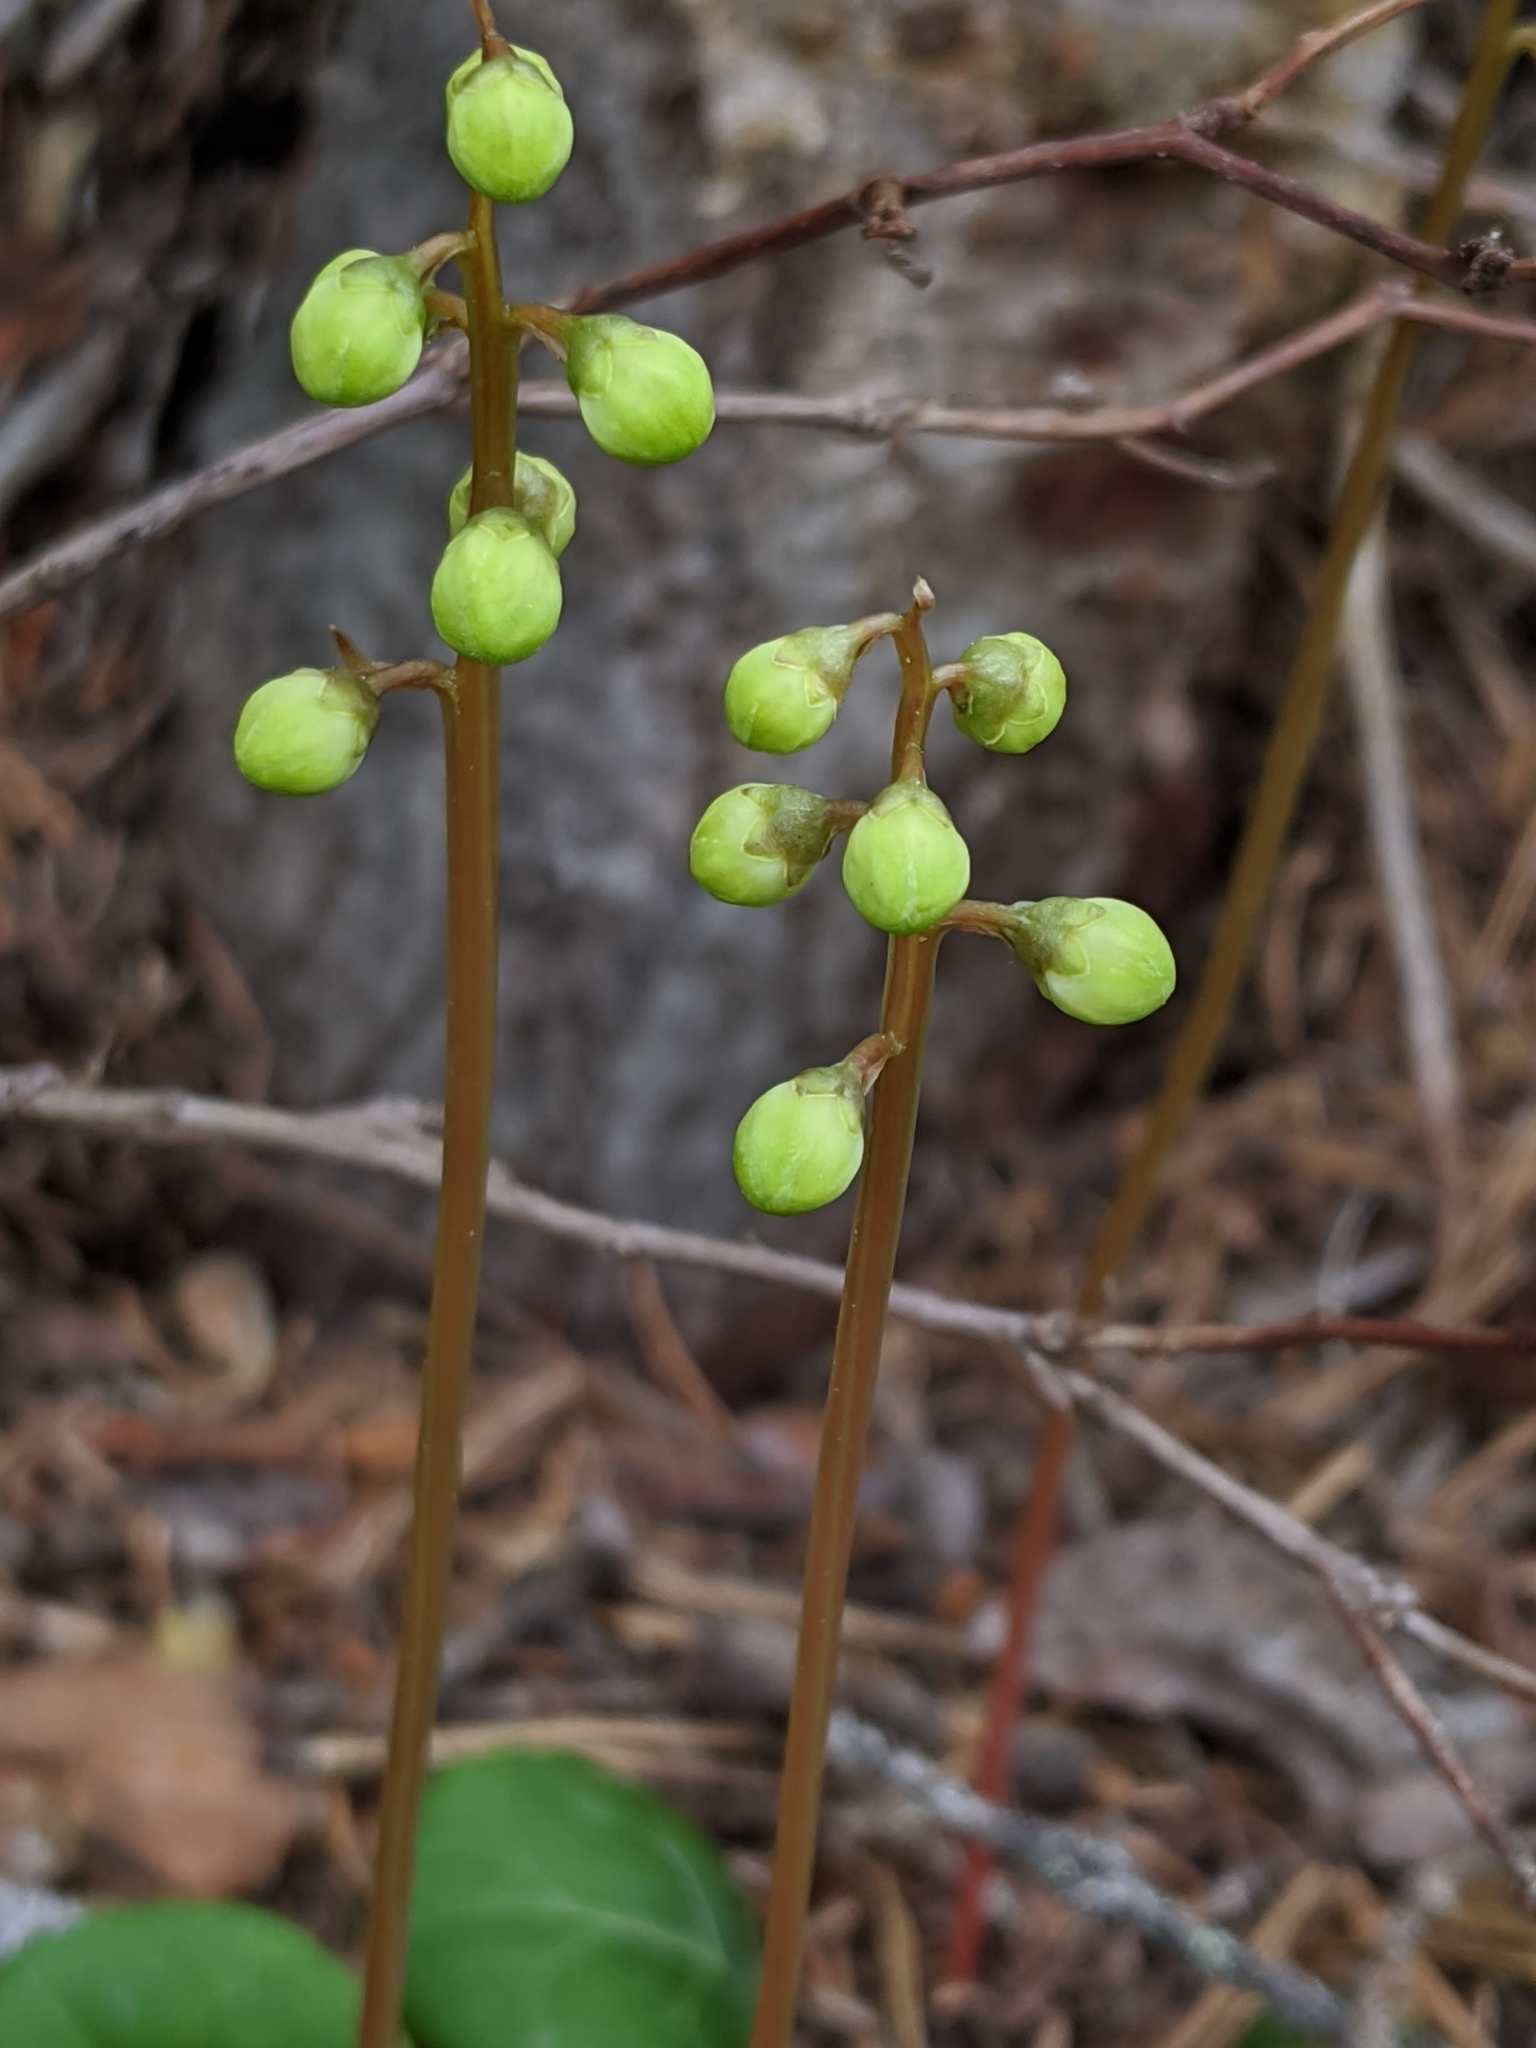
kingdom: Plantae
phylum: Tracheophyta
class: Magnoliopsida
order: Ericales
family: Ericaceae
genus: Pyrola
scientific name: Pyrola chlorantha
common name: Green wintergreen
